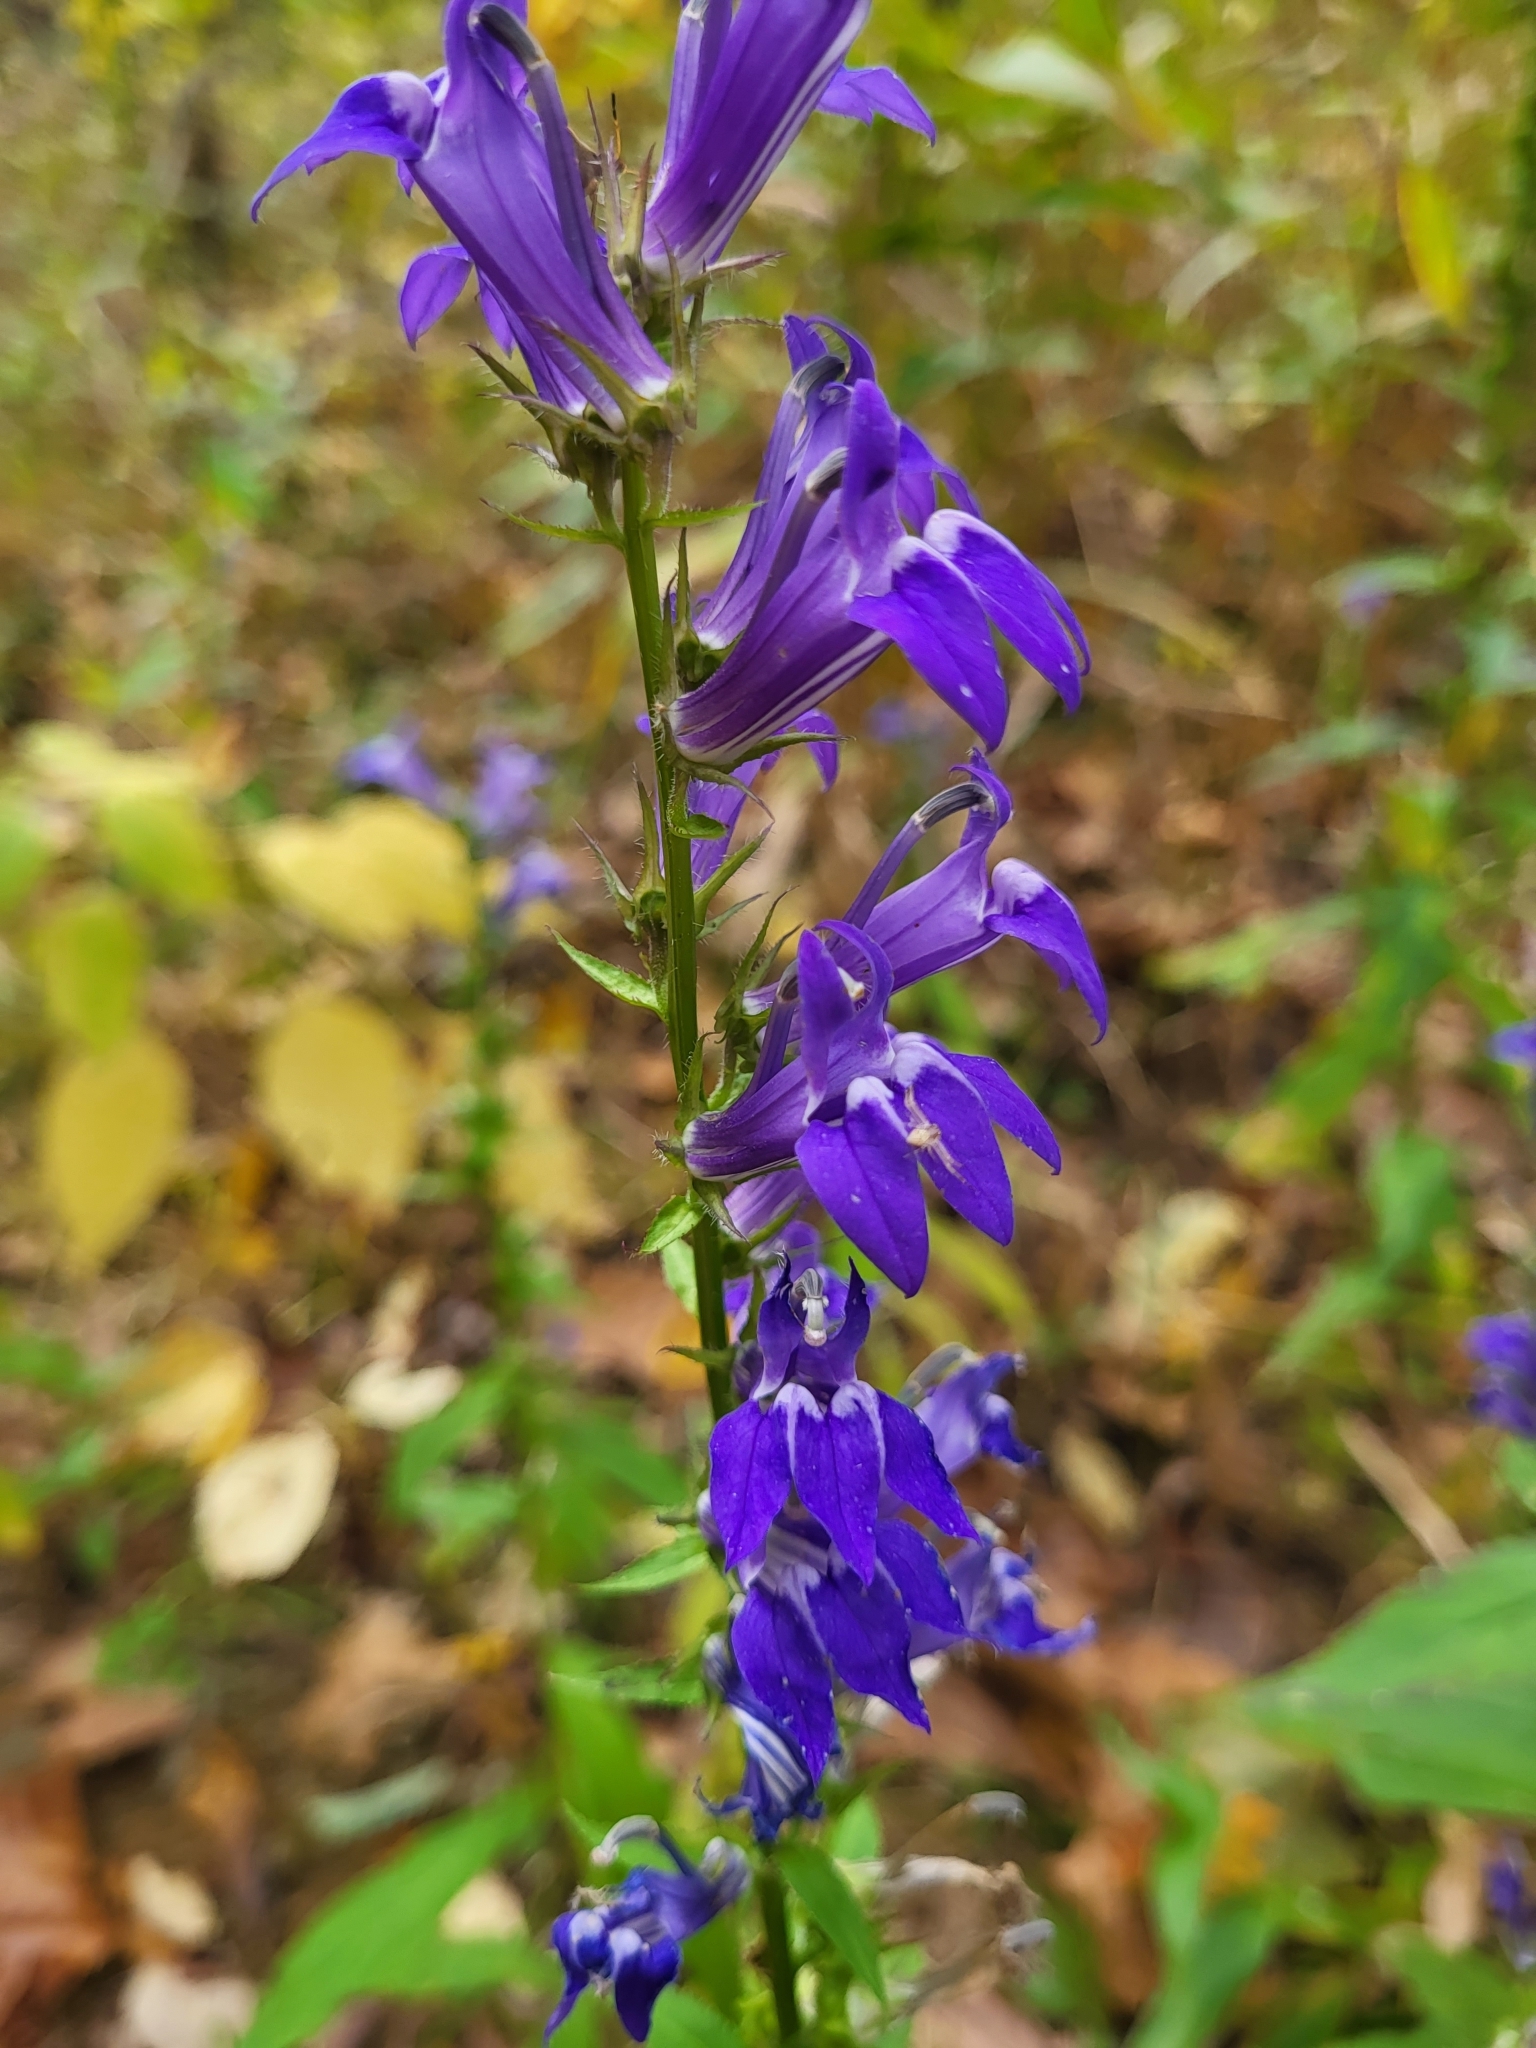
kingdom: Plantae
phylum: Tracheophyta
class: Magnoliopsida
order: Asterales
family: Campanulaceae
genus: Lobelia
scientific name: Lobelia siphilitica
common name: Great lobelia
